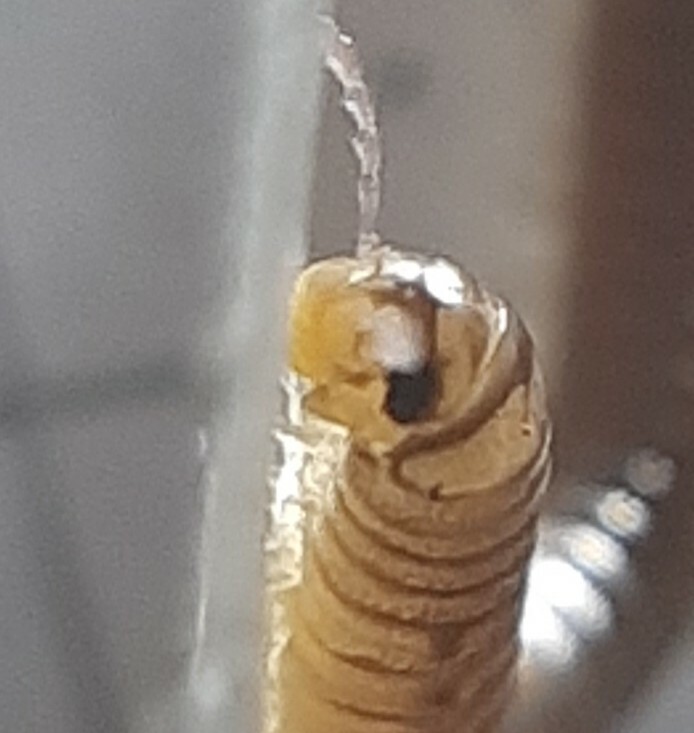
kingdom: Animalia
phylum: Arthropoda
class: Diplopoda
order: Julida
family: Julidae
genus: Cylindroiulus
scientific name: Cylindroiulus latzeli
